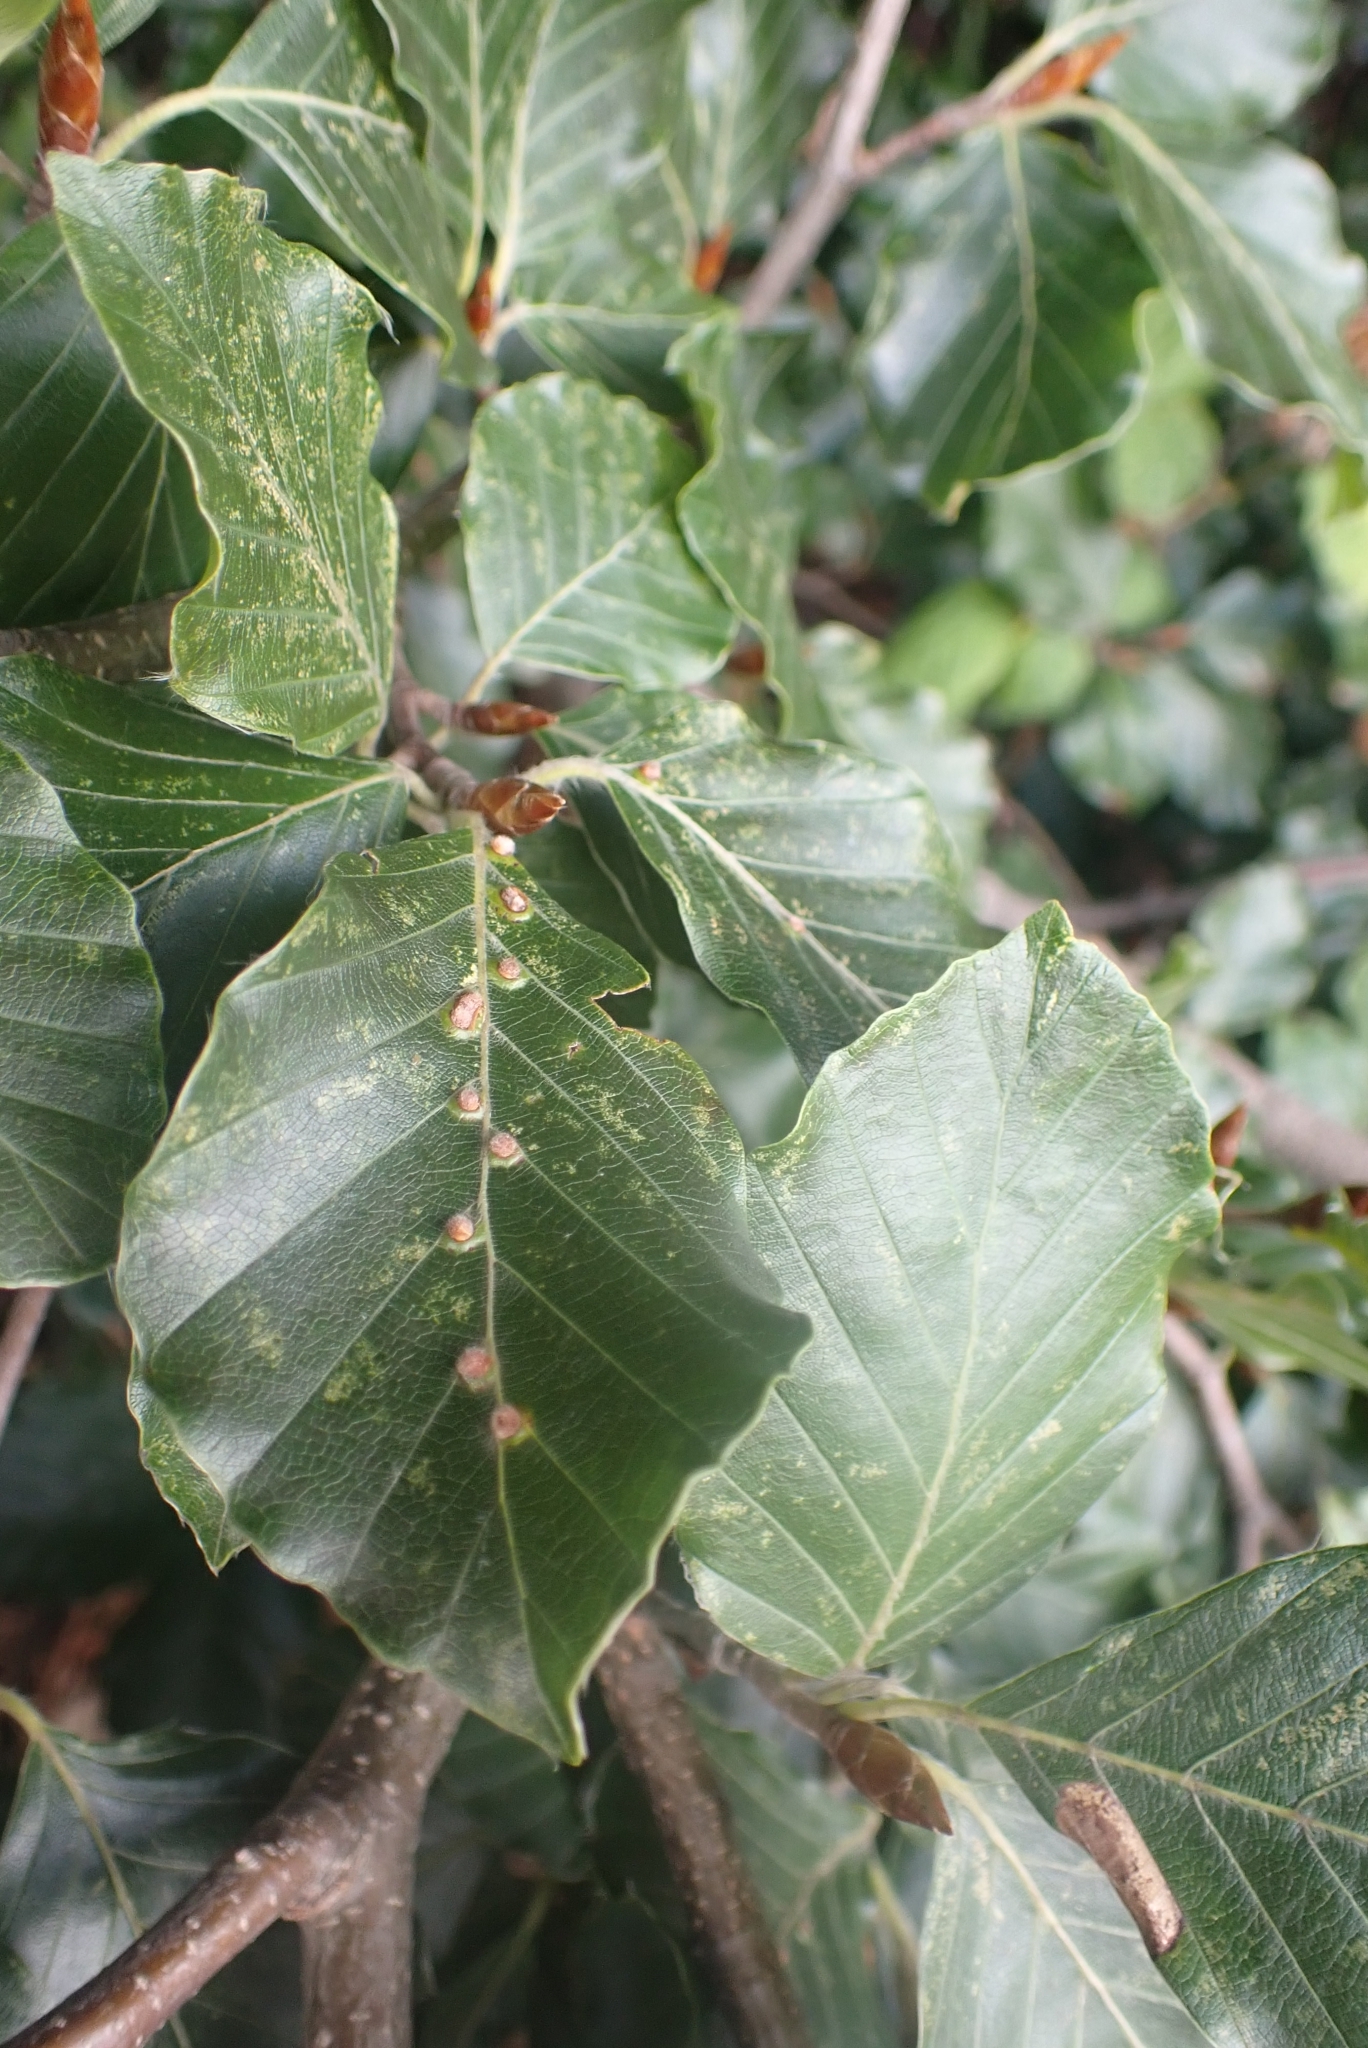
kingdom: Animalia
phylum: Arthropoda
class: Insecta
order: Diptera
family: Cecidomyiidae
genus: Hartigiola
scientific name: Hartigiola annulipes
